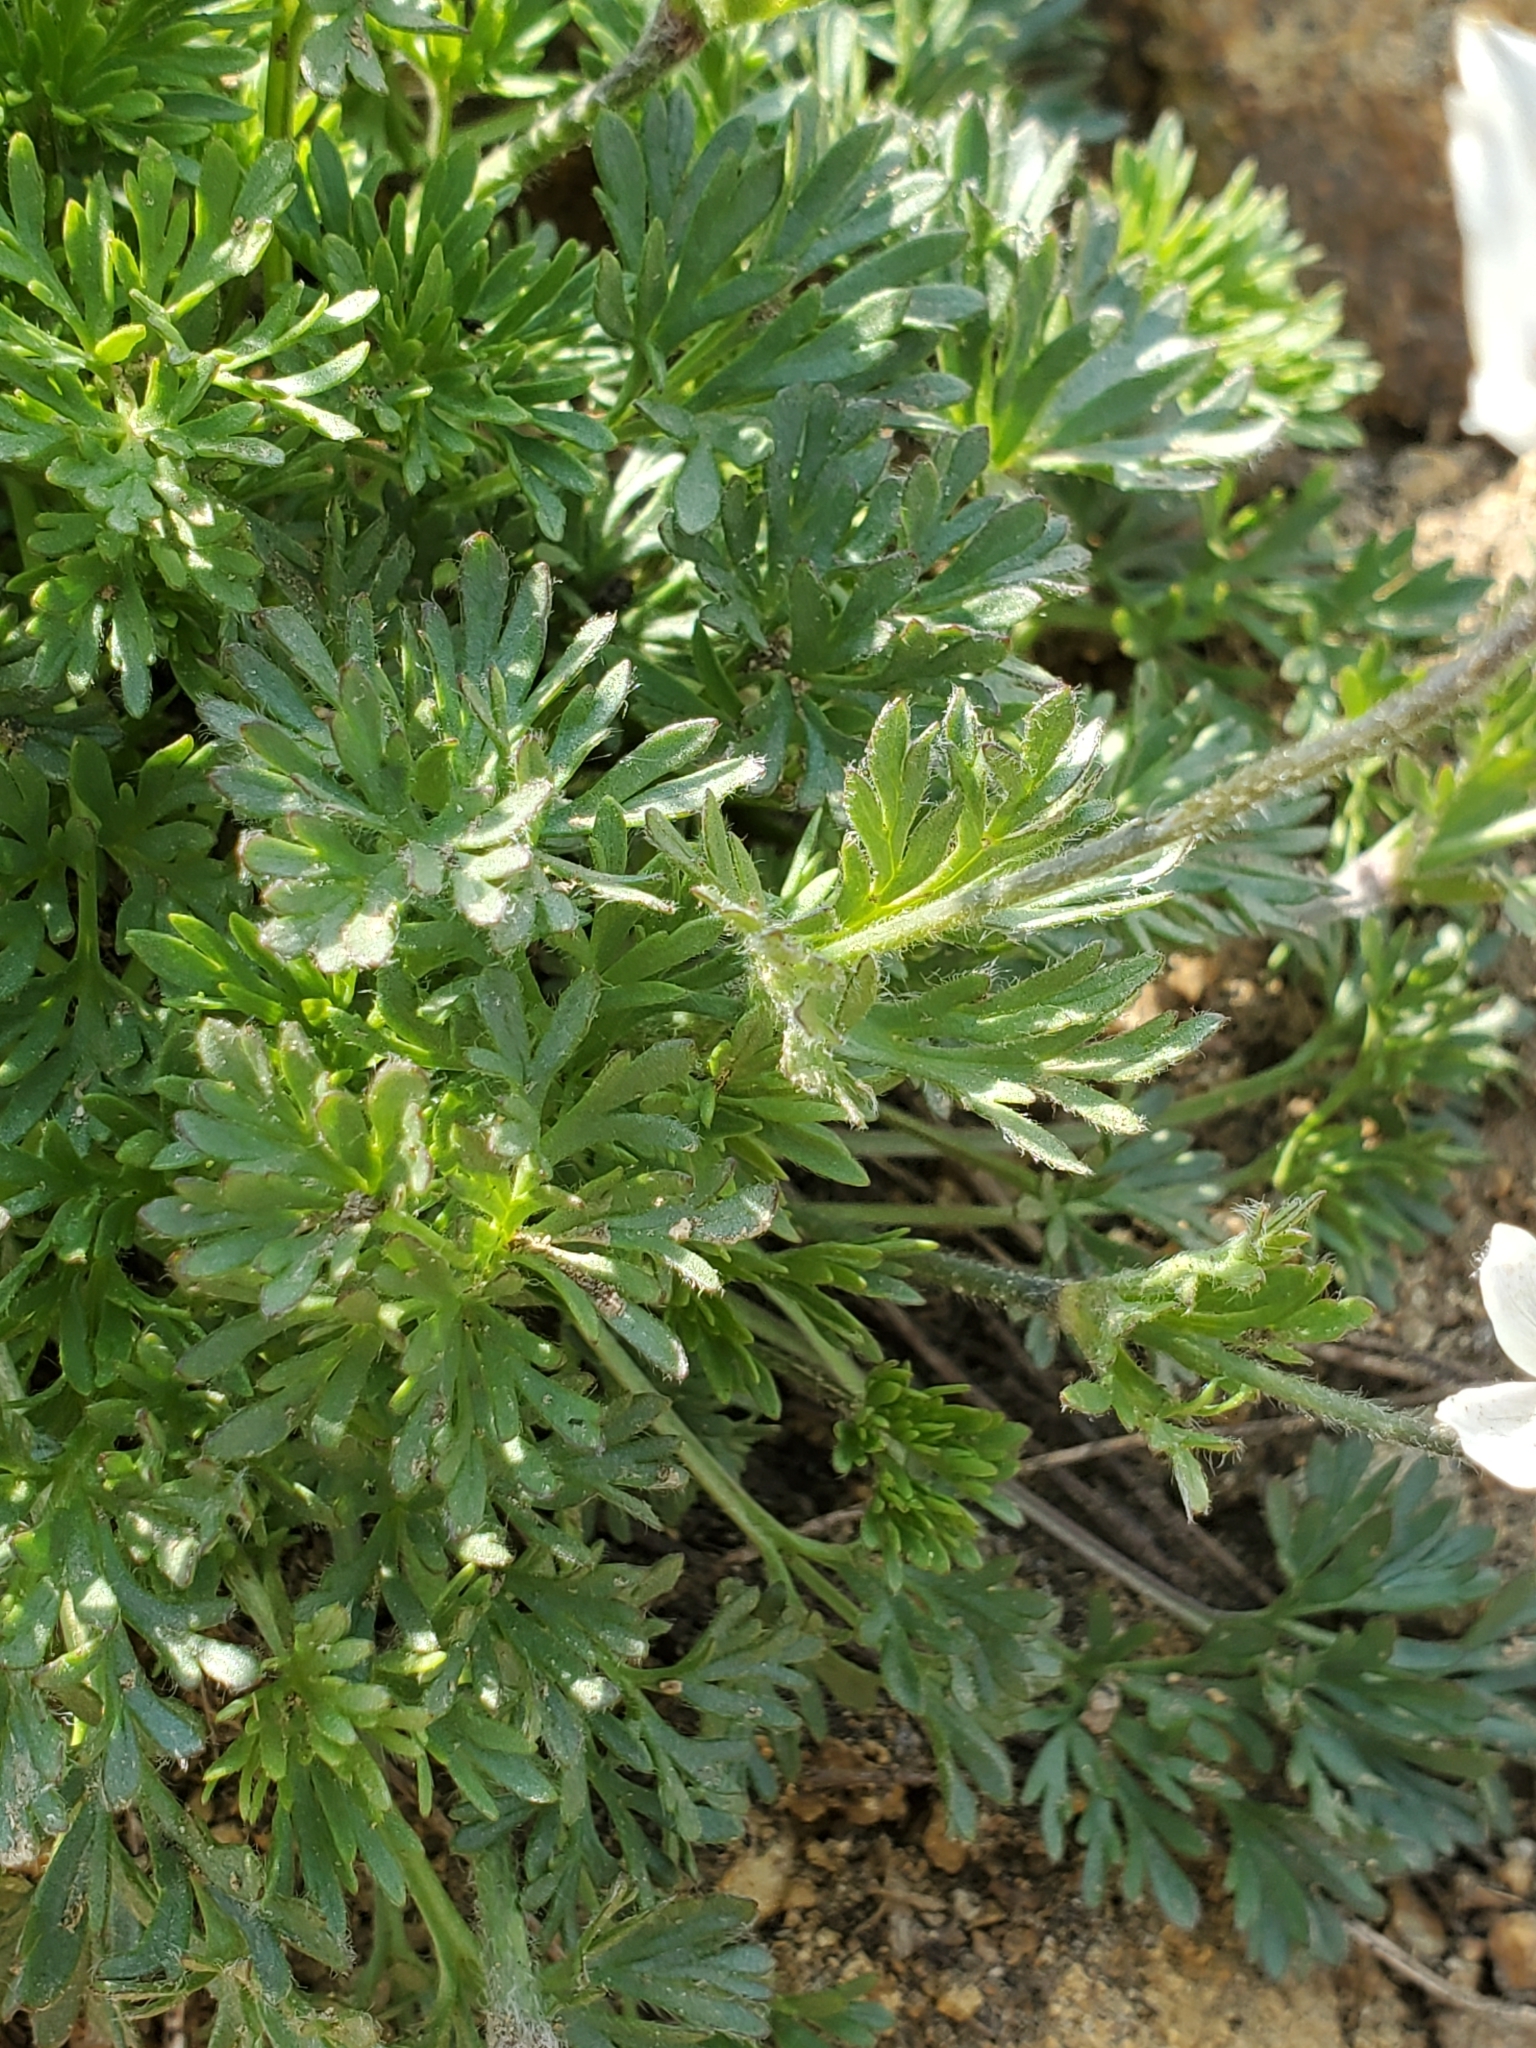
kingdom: Plantae
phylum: Tracheophyta
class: Magnoliopsida
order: Ranunculales
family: Ranunculaceae
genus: Anemone
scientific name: Anemone drummondii
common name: Drummond's anemone
